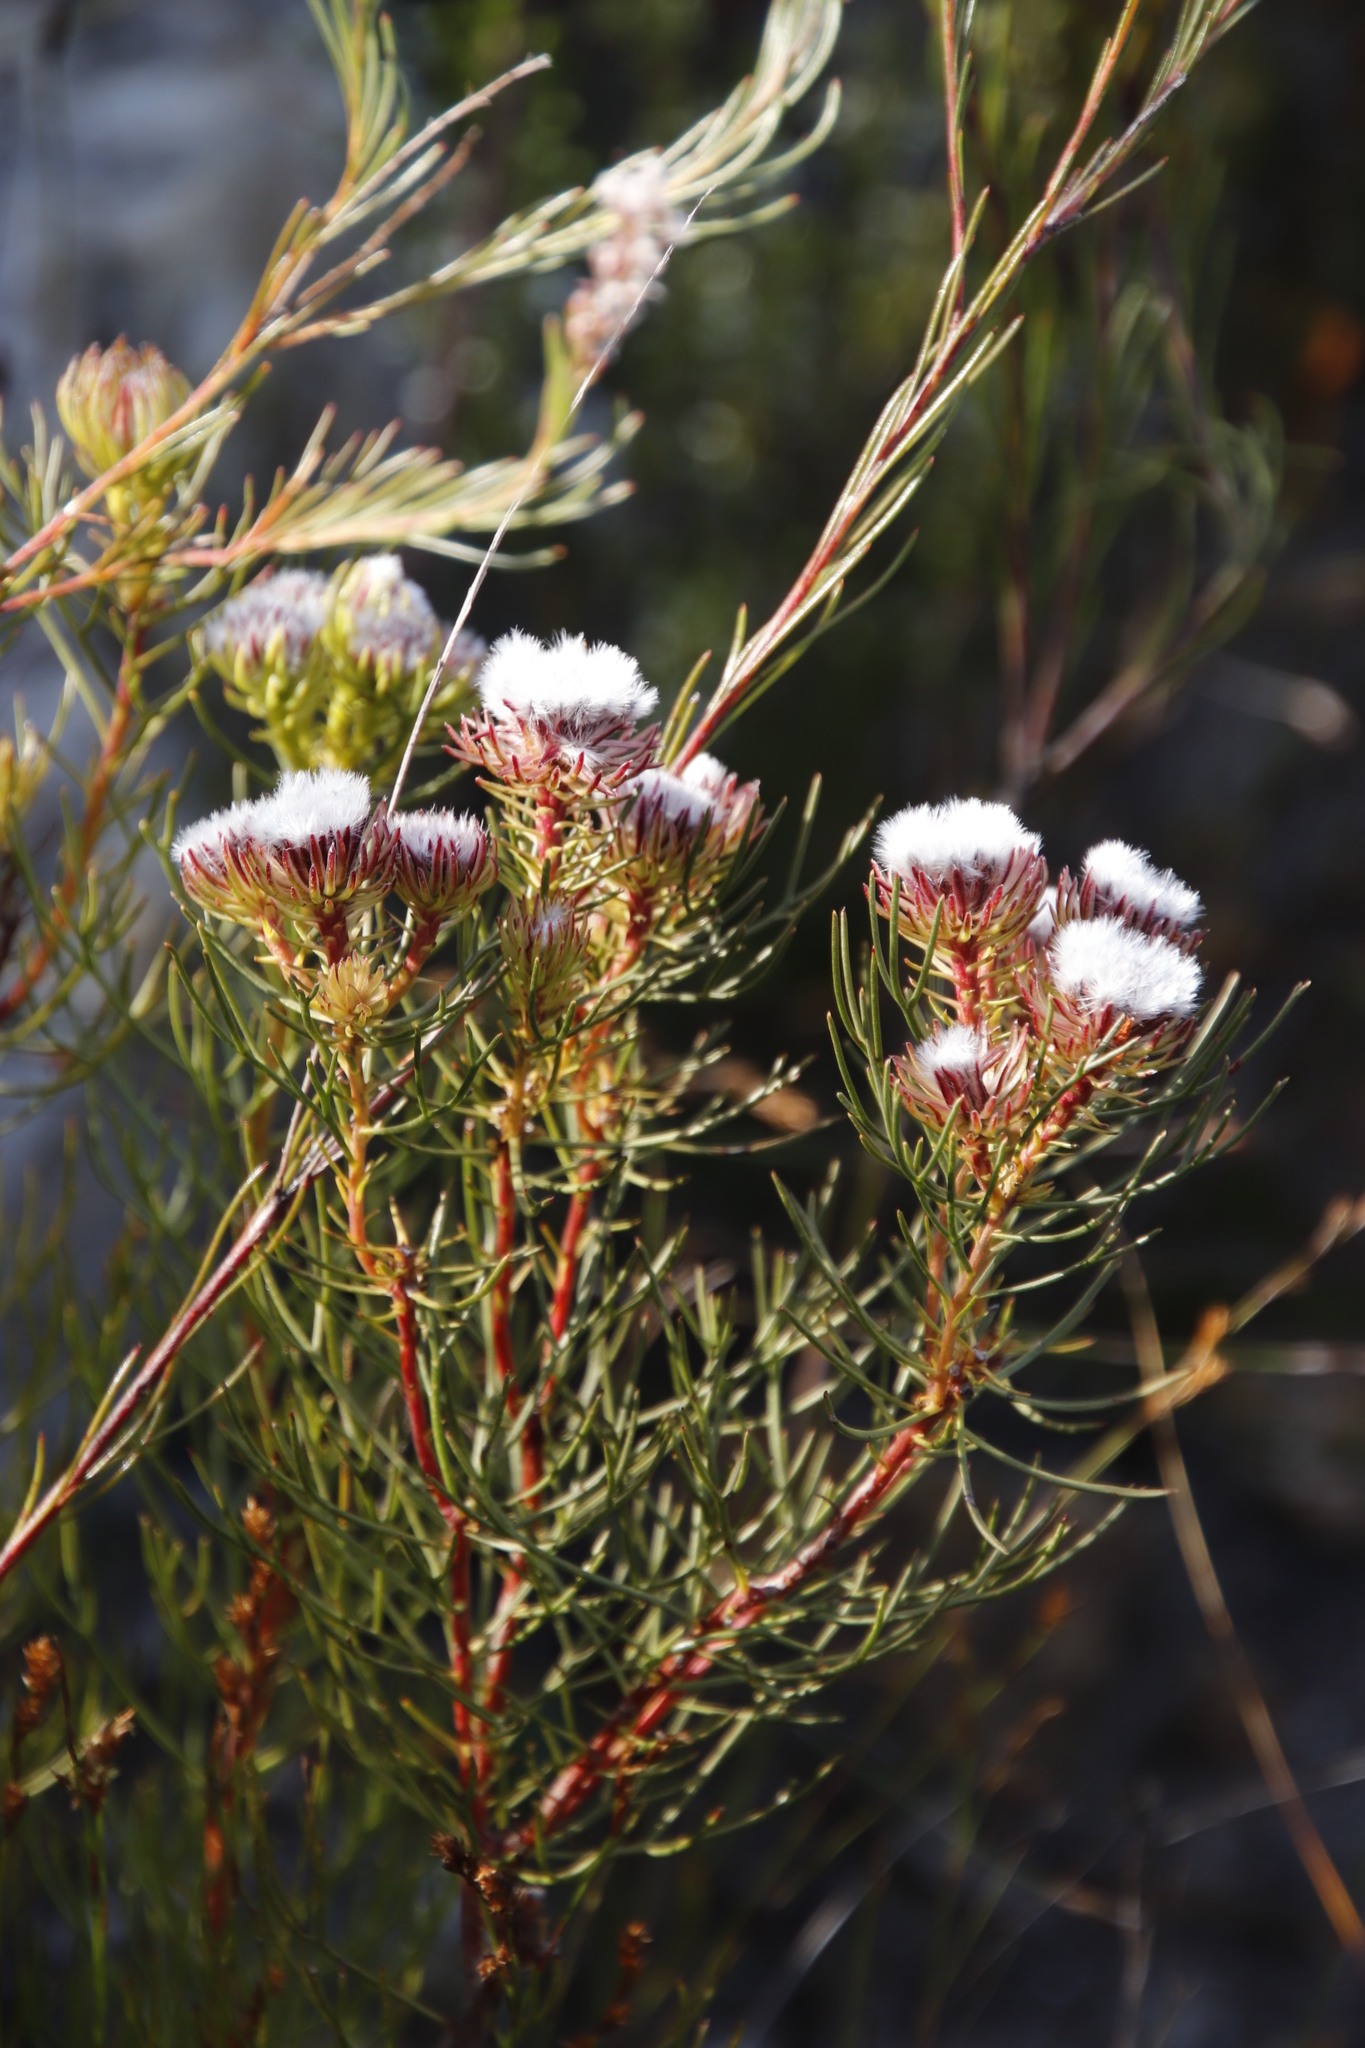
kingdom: Plantae
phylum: Tracheophyta
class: Magnoliopsida
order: Proteales
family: Proteaceae
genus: Serruria
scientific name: Serruria phylicoides
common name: Bearded spiderhead
